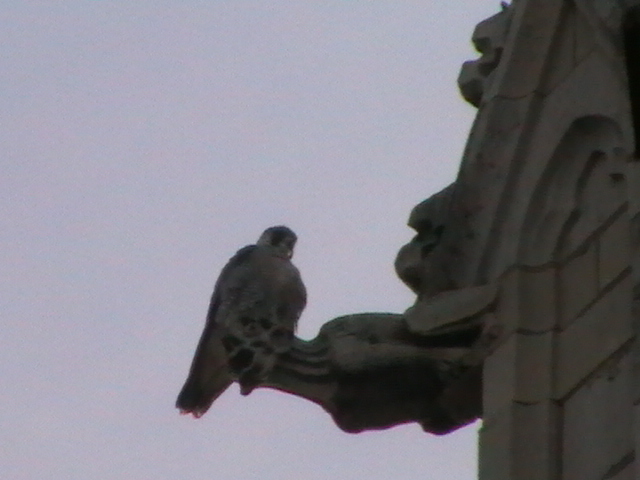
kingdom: Animalia
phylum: Chordata
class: Aves
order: Falconiformes
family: Falconidae
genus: Falco
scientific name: Falco peregrinus
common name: Peregrine falcon
